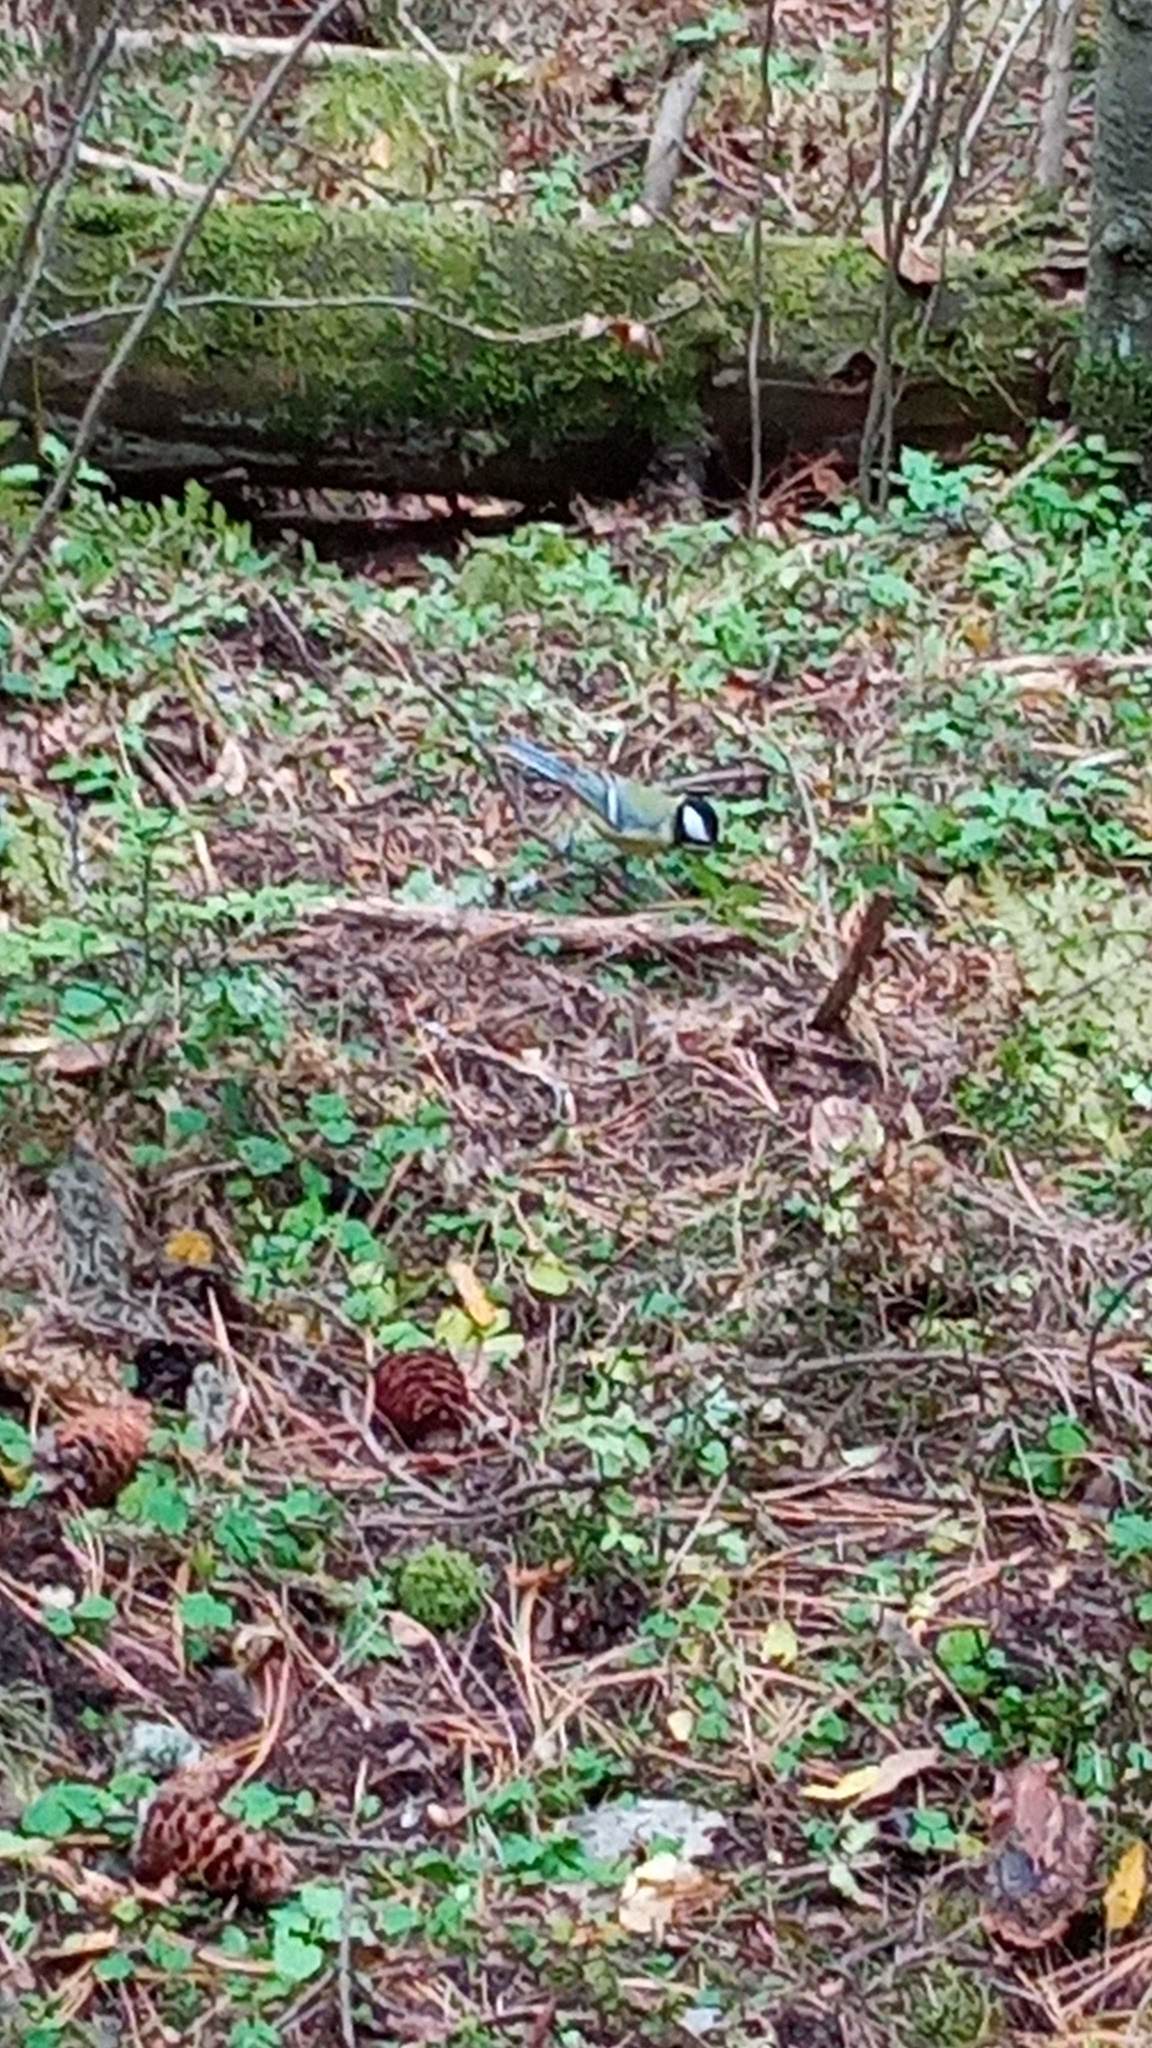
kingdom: Animalia
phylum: Chordata
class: Aves
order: Passeriformes
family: Paridae
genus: Parus
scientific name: Parus major
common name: Great tit
